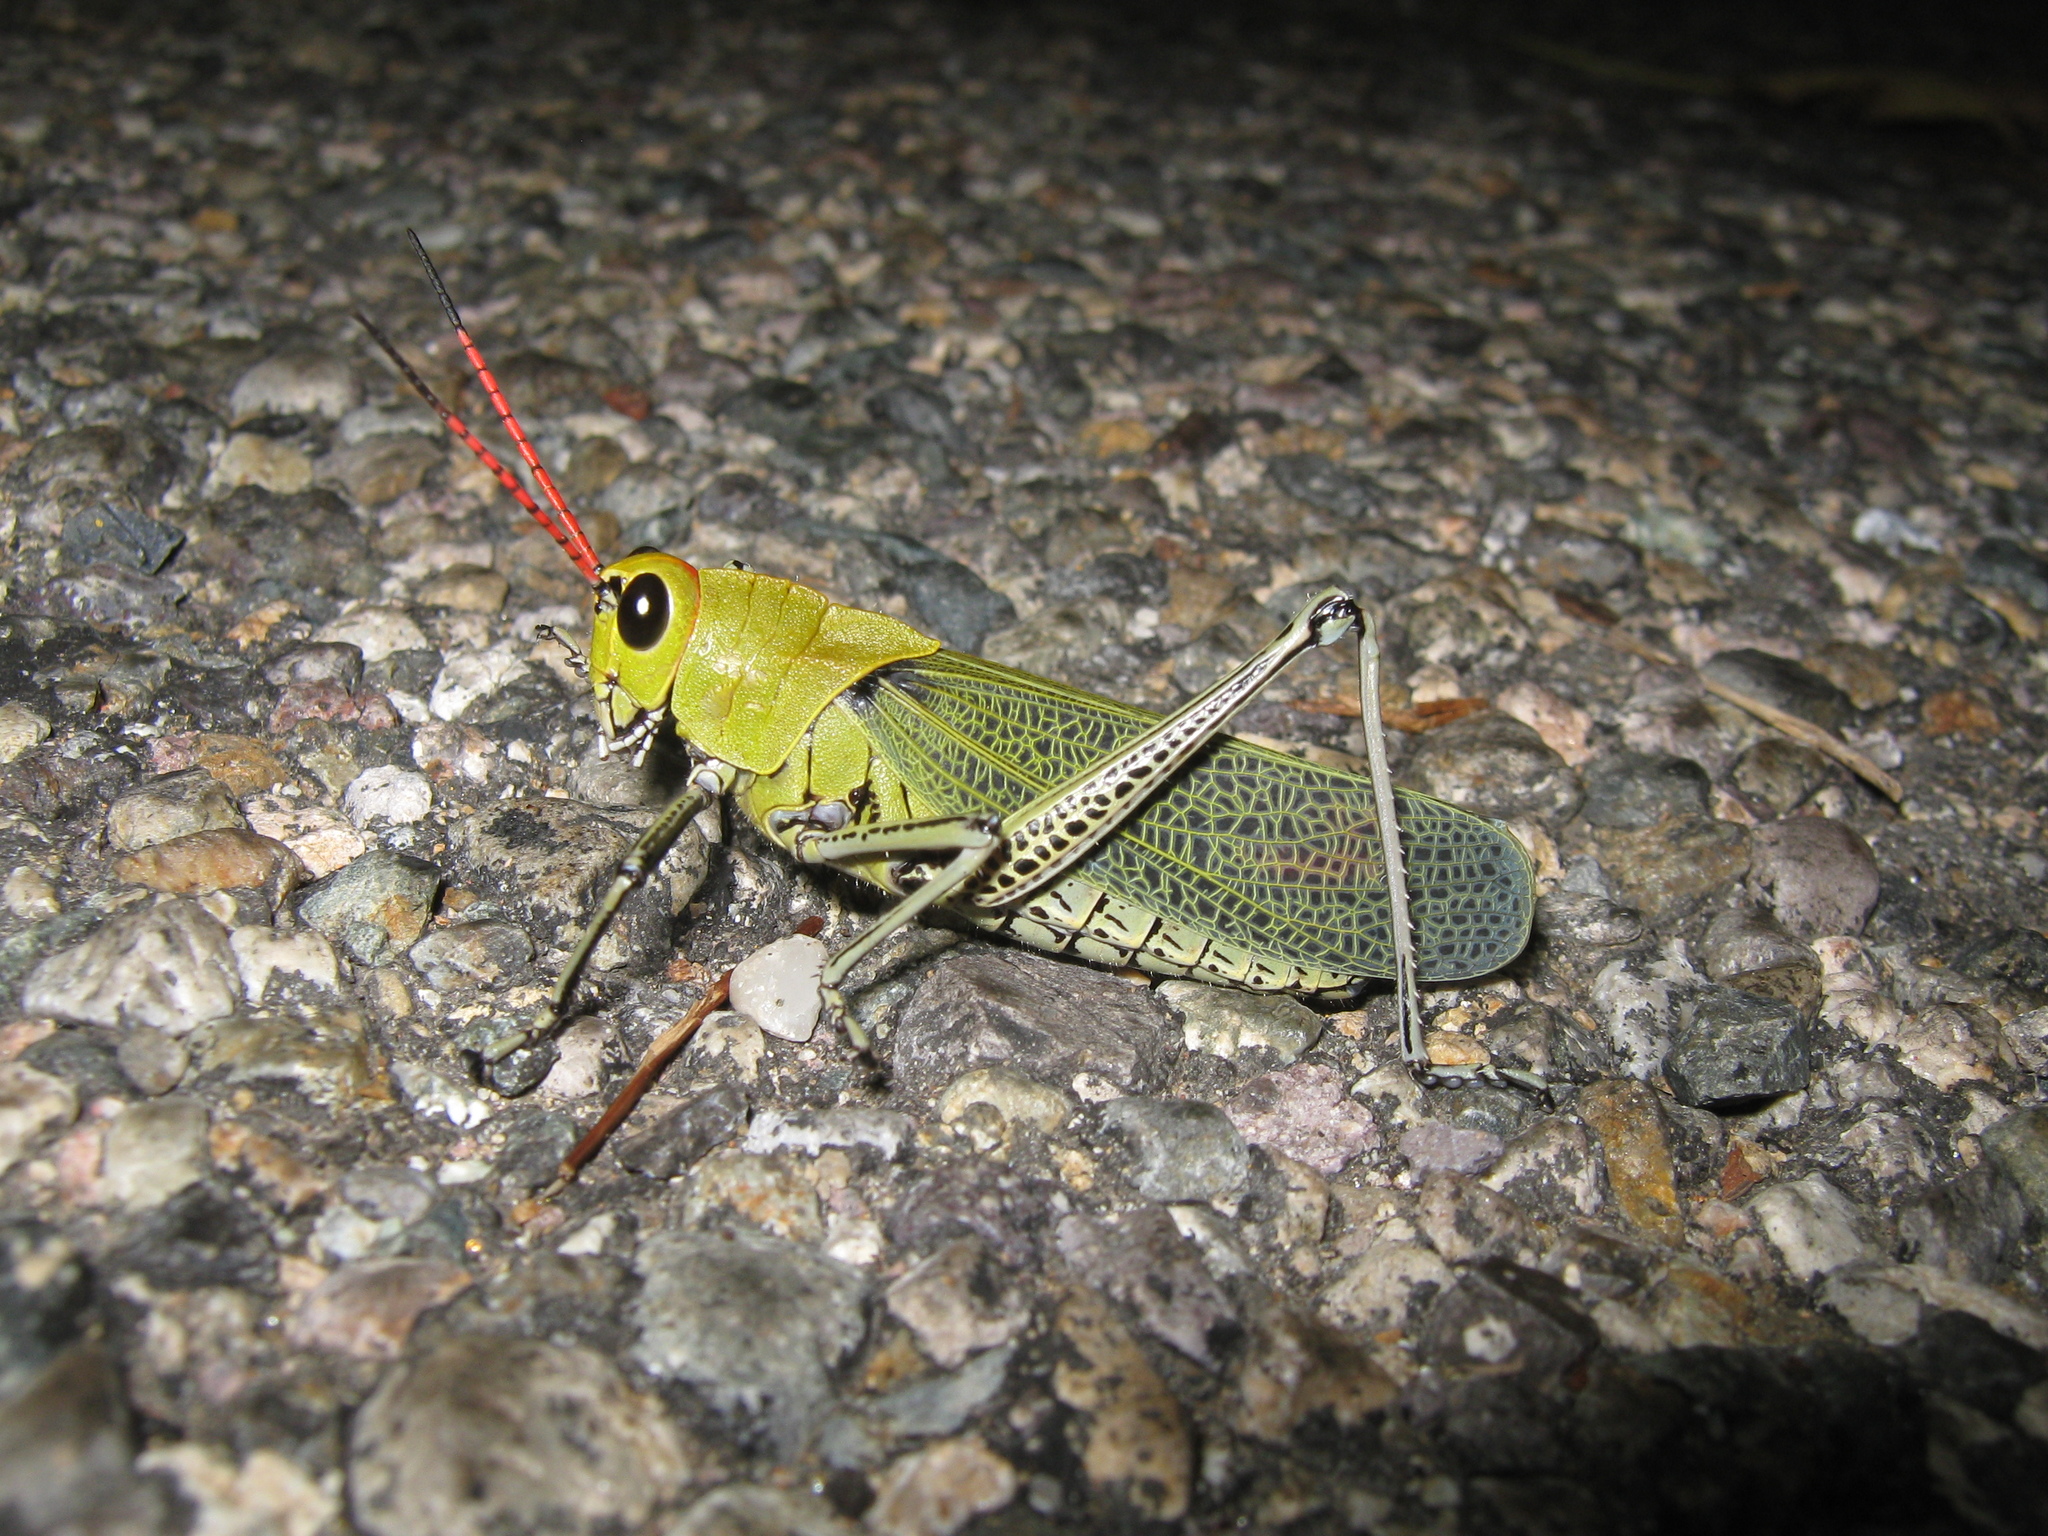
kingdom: Animalia
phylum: Arthropoda
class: Insecta
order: Orthoptera
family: Romaleidae
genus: Romalea
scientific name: Romalea
